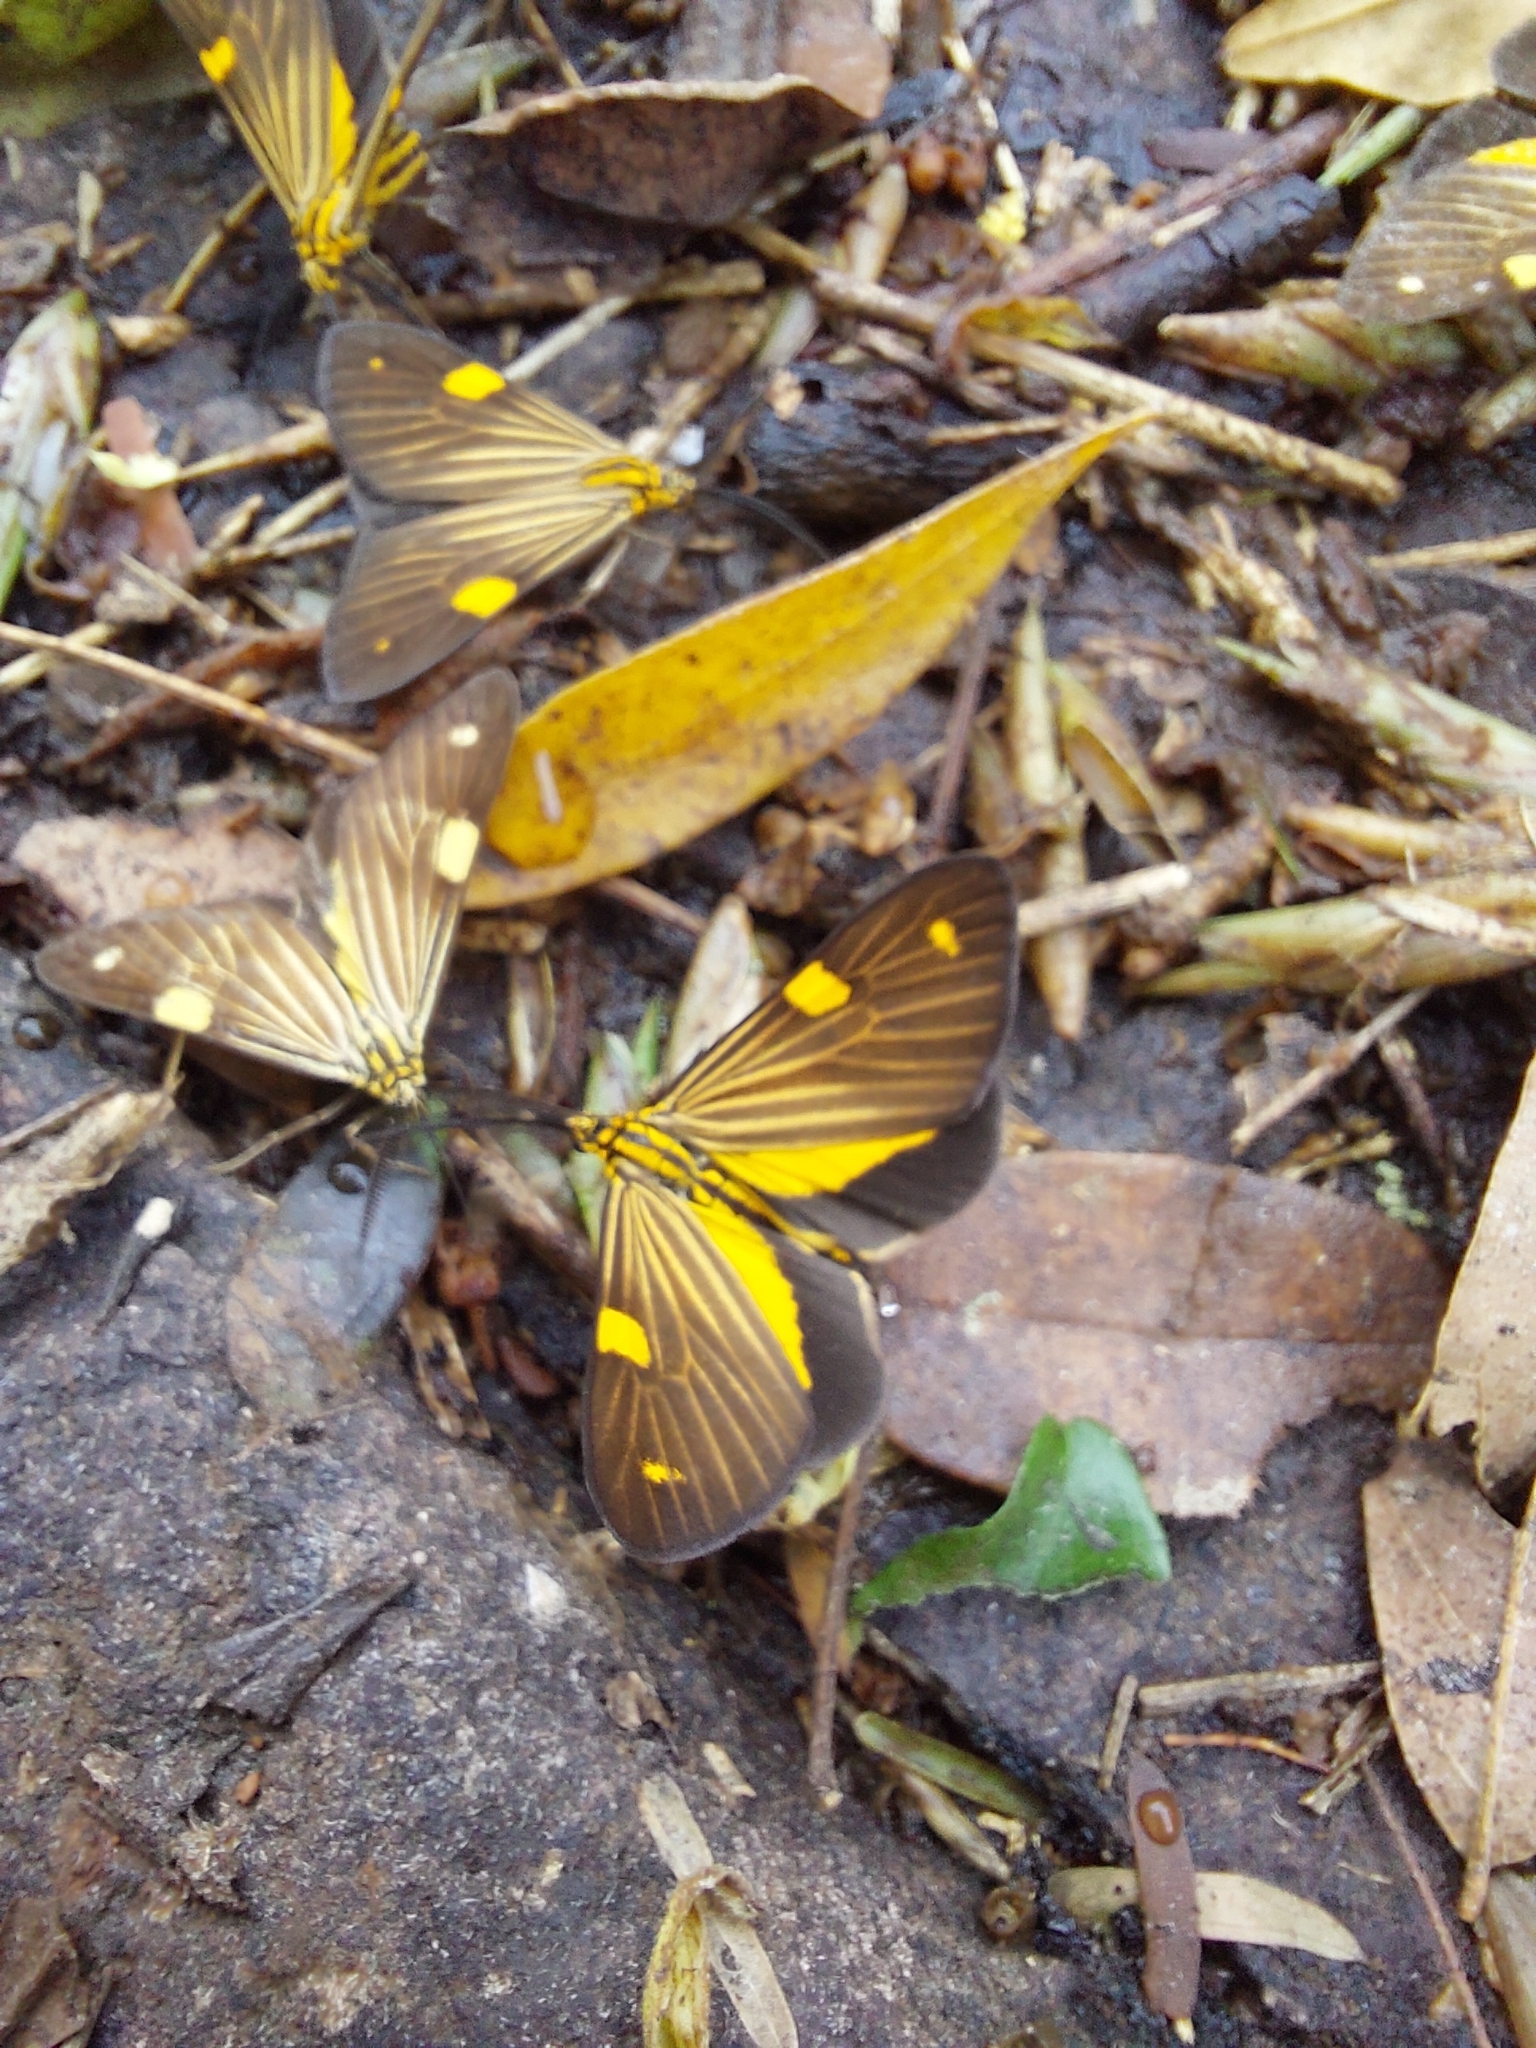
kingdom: Animalia
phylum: Arthropoda
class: Insecta
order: Lepidoptera
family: Notodontidae
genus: Phaeochlaena
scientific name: Phaeochlaena
